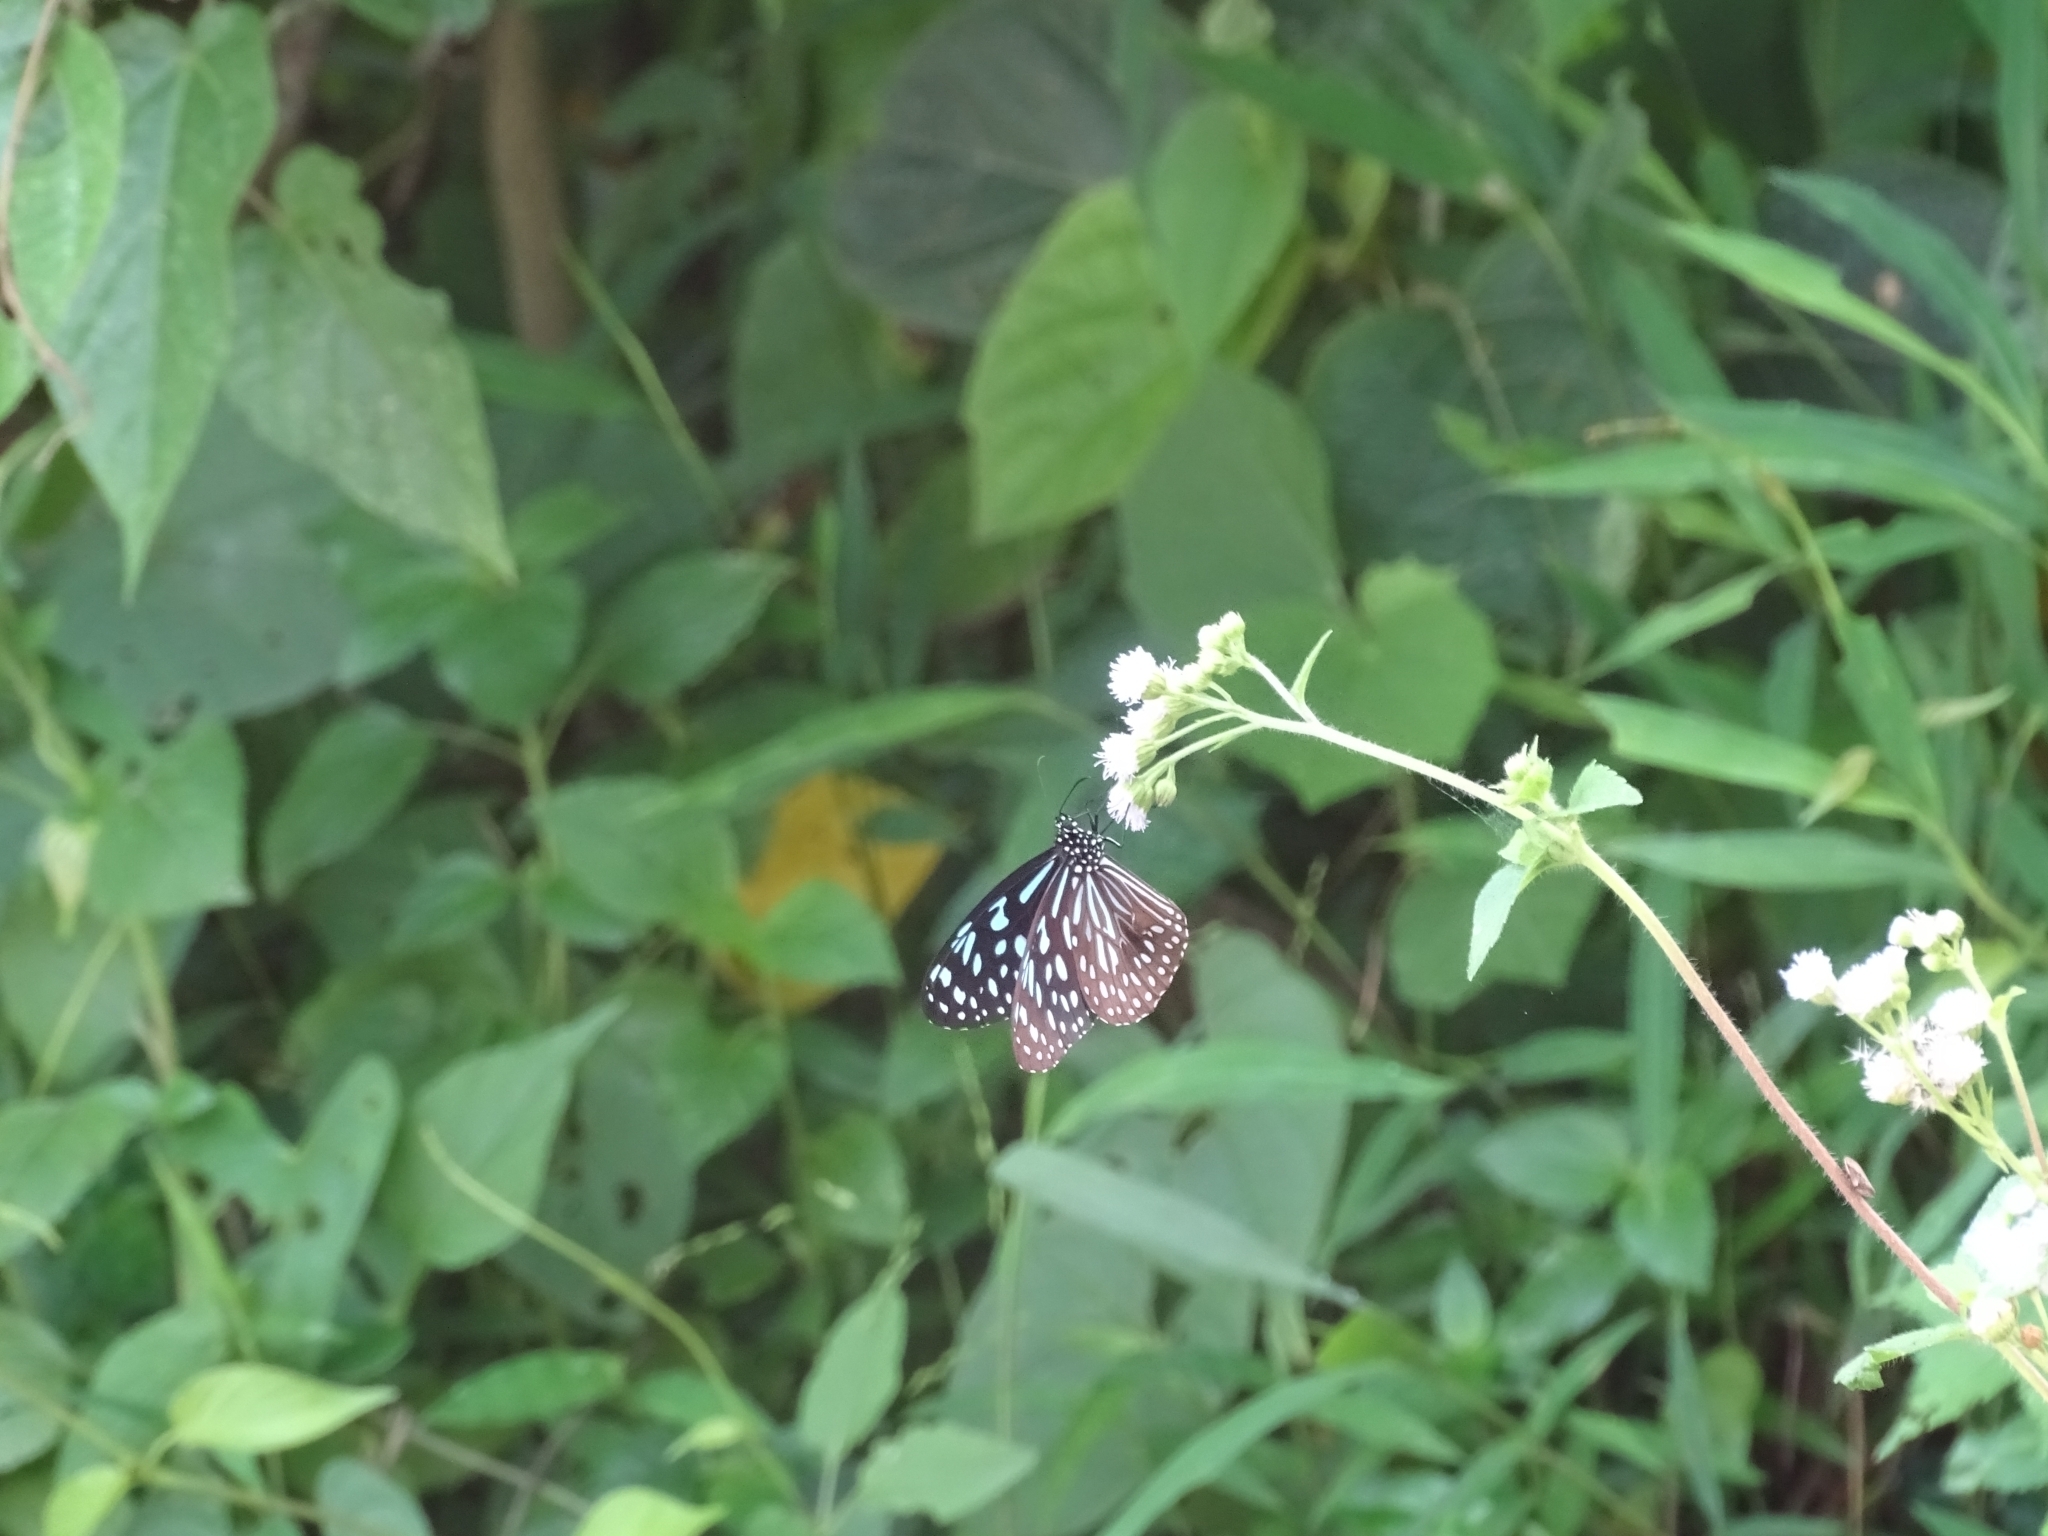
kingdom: Animalia
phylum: Arthropoda
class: Insecta
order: Lepidoptera
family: Nymphalidae
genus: Tirumala
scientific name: Tirumala septentrionis
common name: Dark blue tiger butterfly
